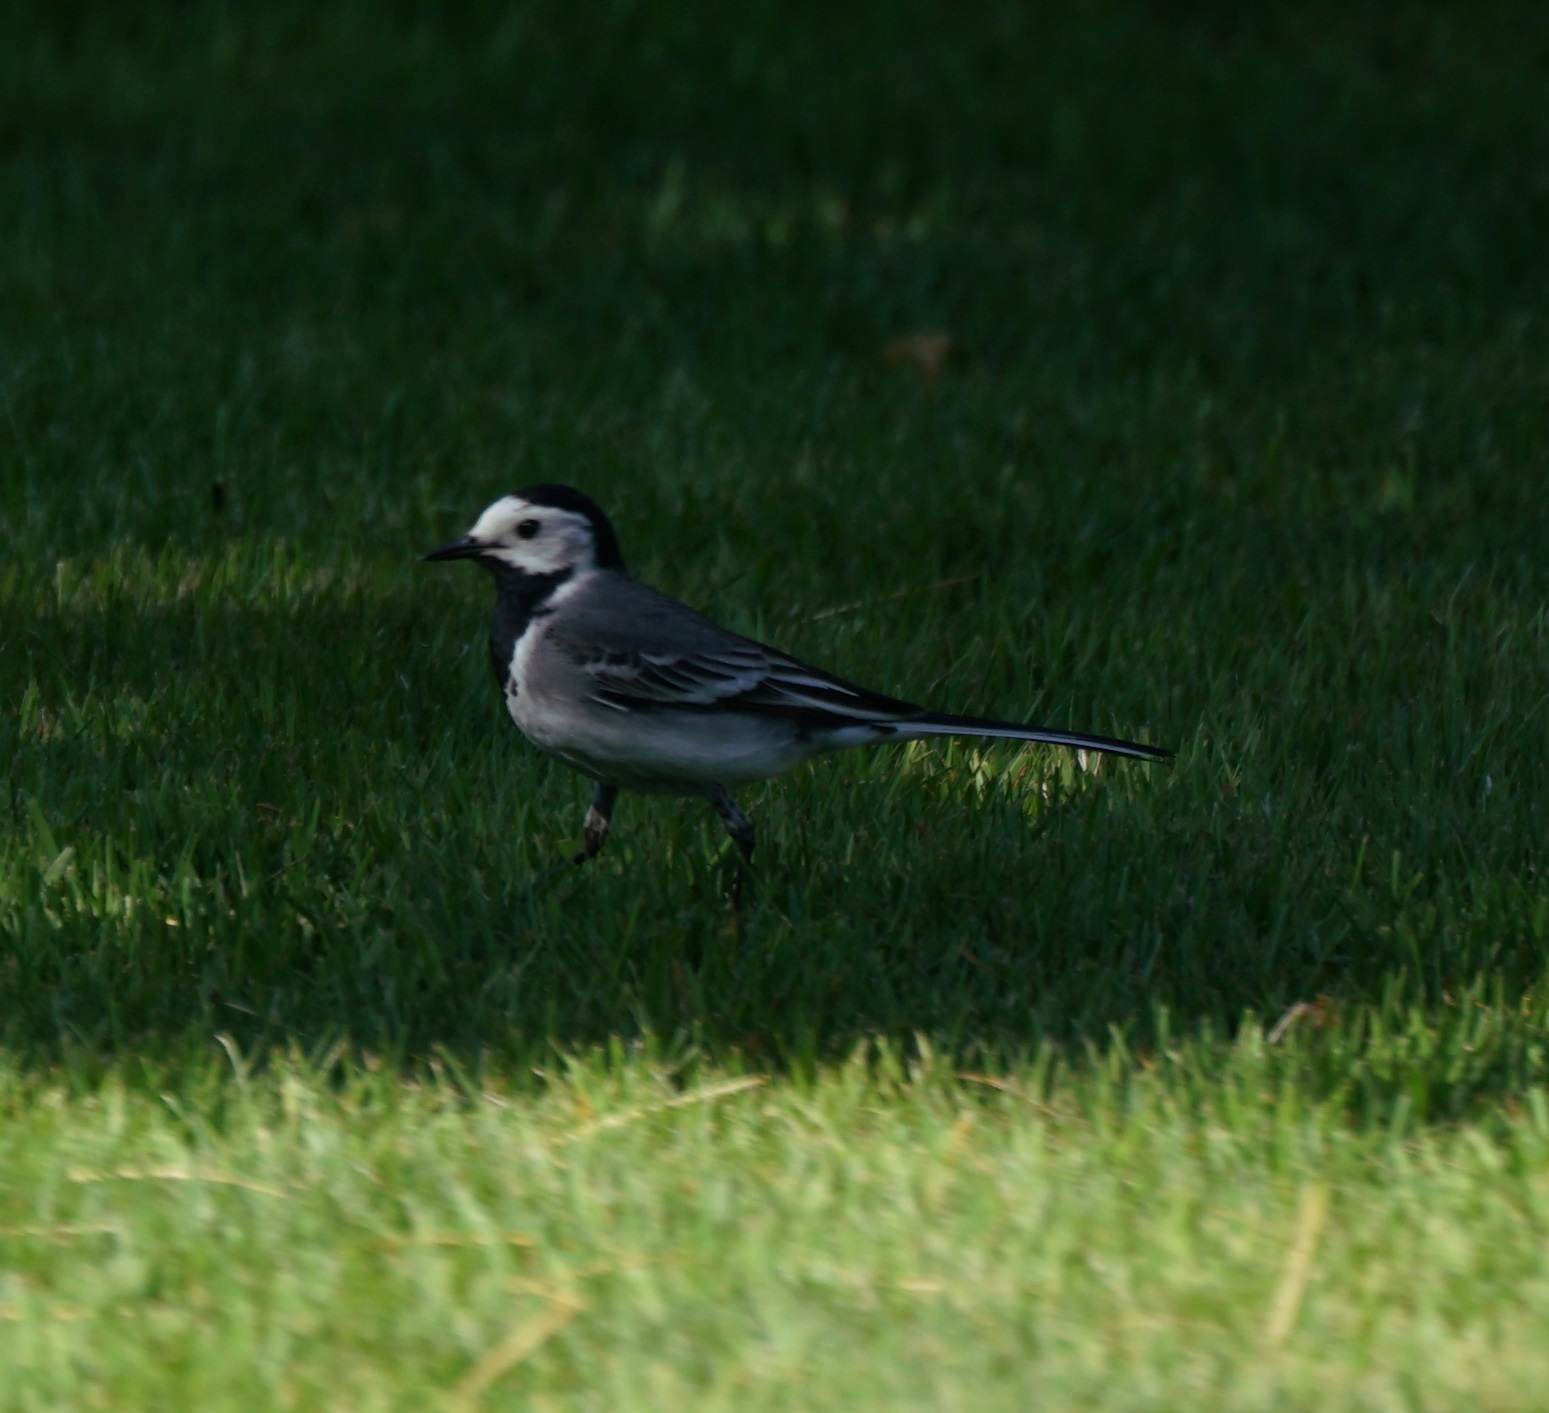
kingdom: Animalia
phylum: Chordata
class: Aves
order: Passeriformes
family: Motacillidae
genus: Motacilla
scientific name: Motacilla alba
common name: White wagtail
